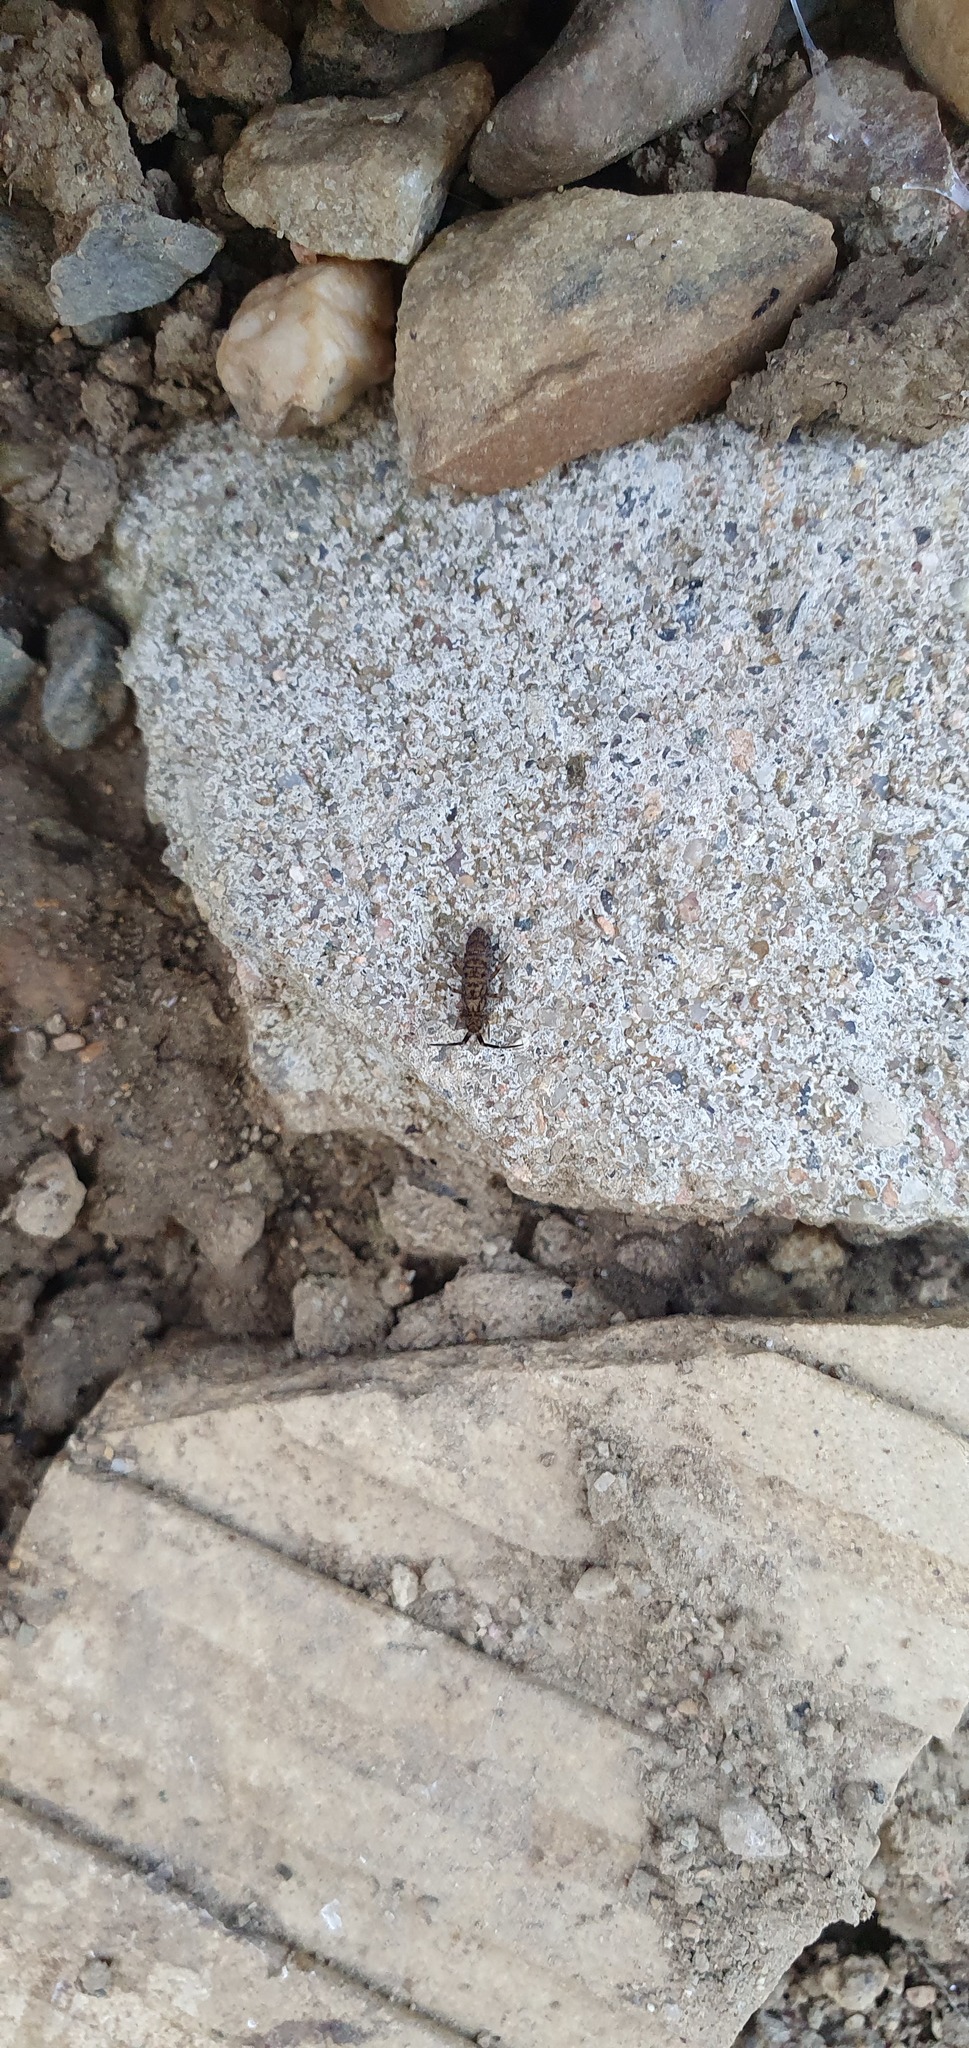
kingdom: Animalia
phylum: Arthropoda
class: Collembola
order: Entomobryomorpha
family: Orchesellidae
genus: Orchesella
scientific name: Orchesella villosa
